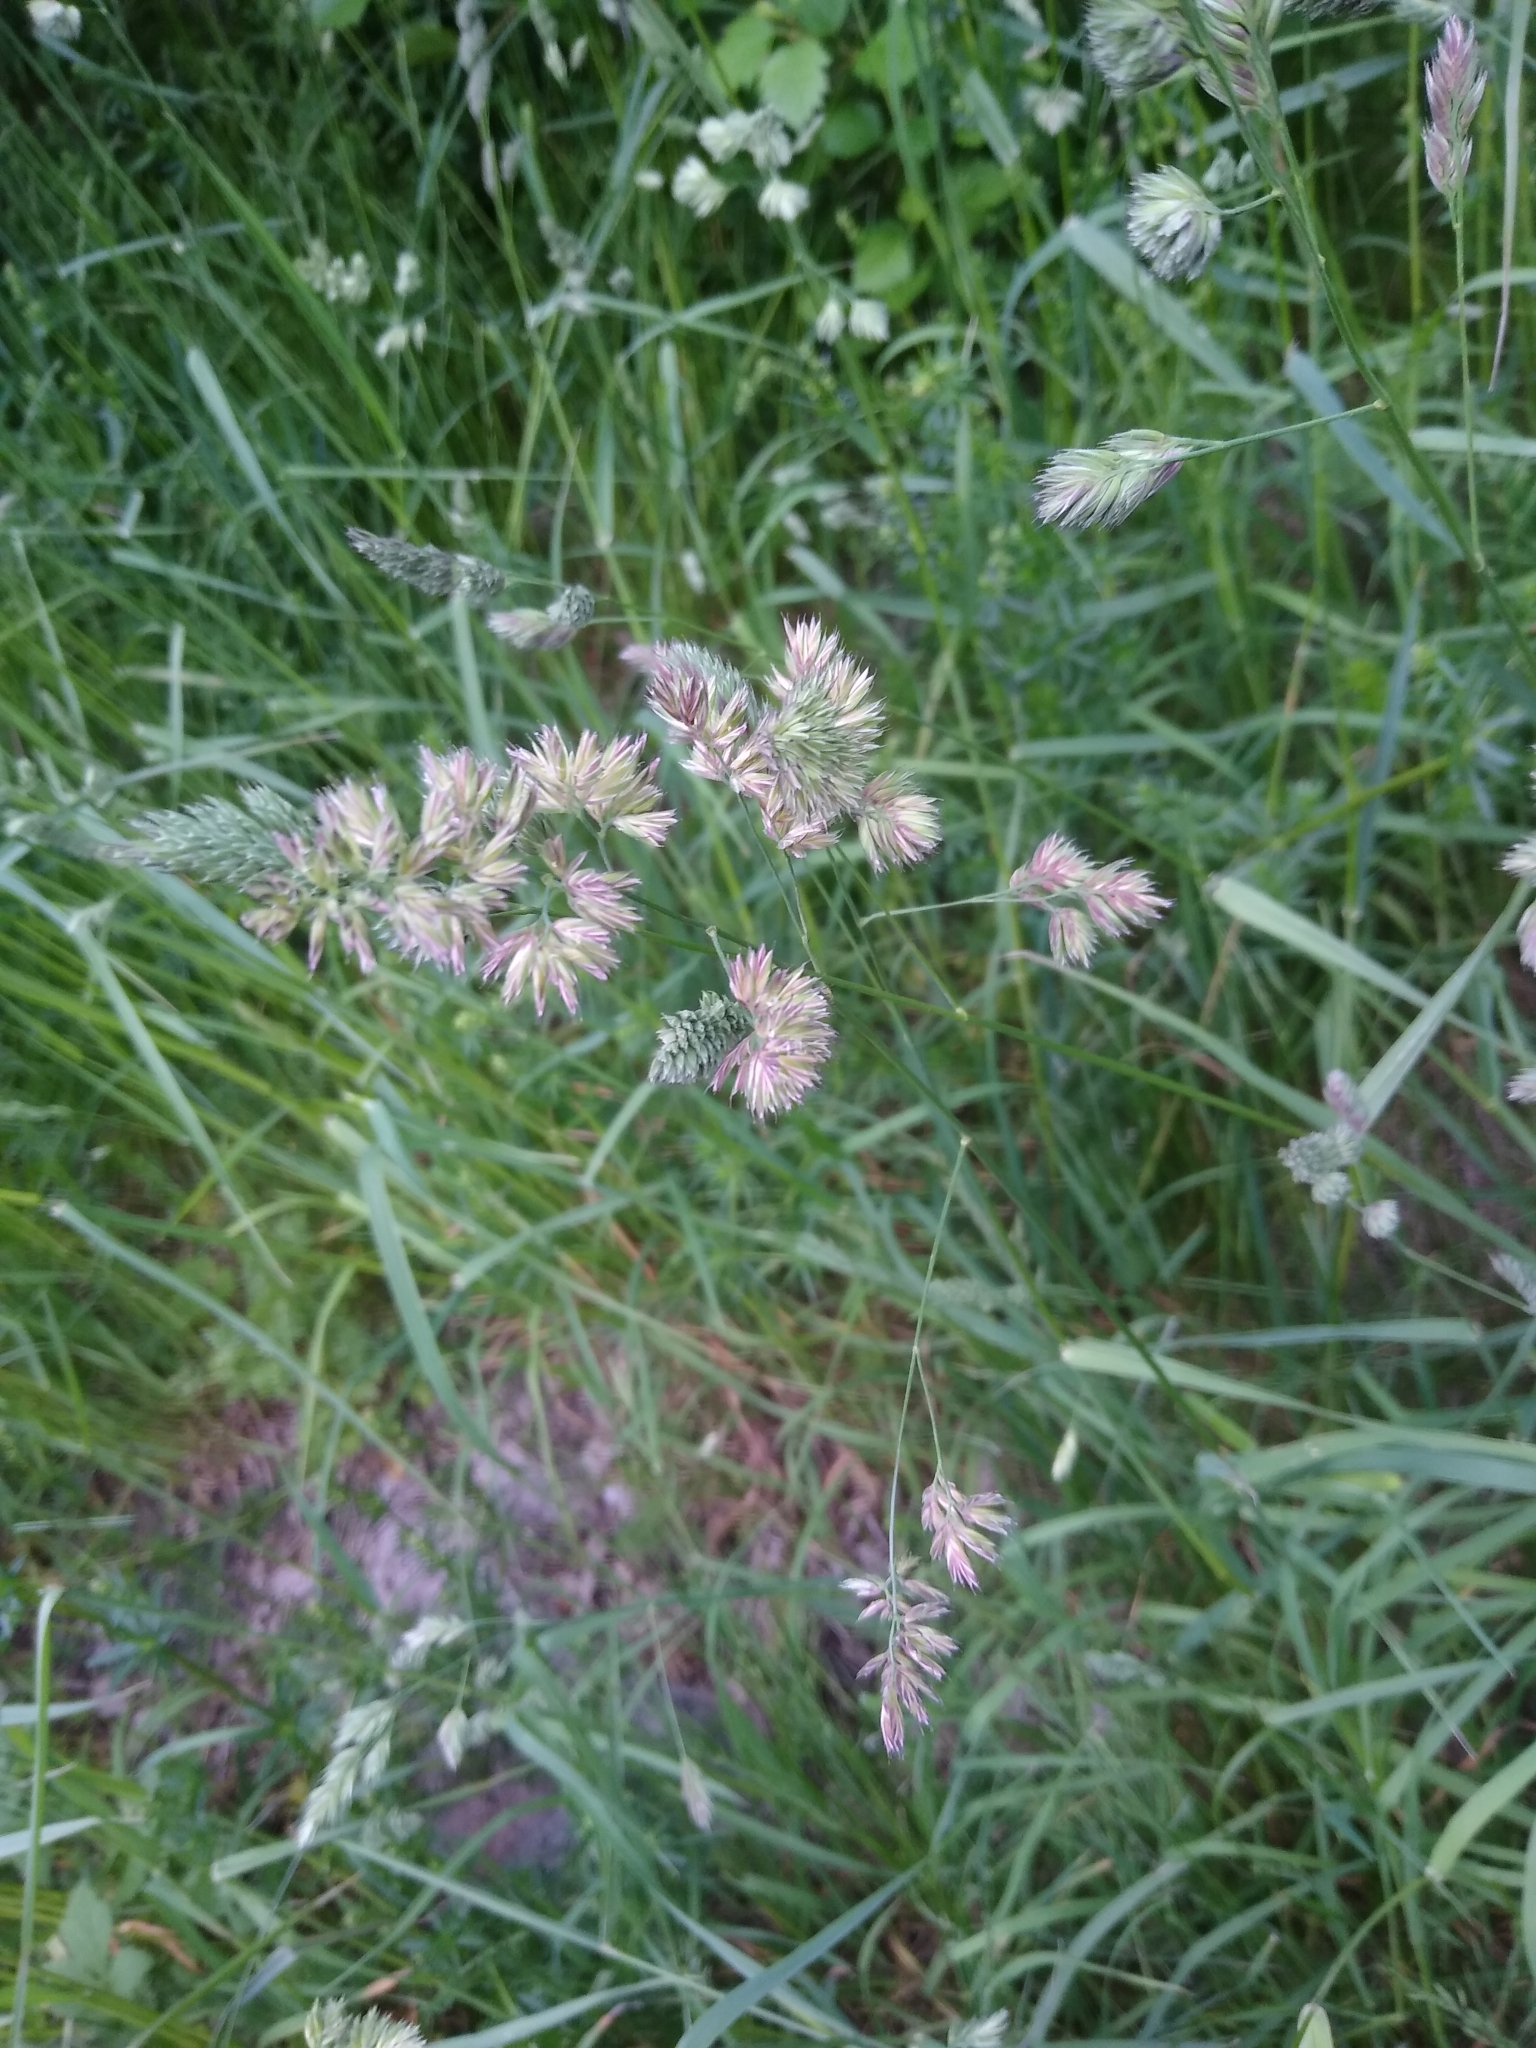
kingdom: Plantae
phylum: Tracheophyta
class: Liliopsida
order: Poales
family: Poaceae
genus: Dactylis
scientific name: Dactylis glomerata
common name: Orchardgrass
